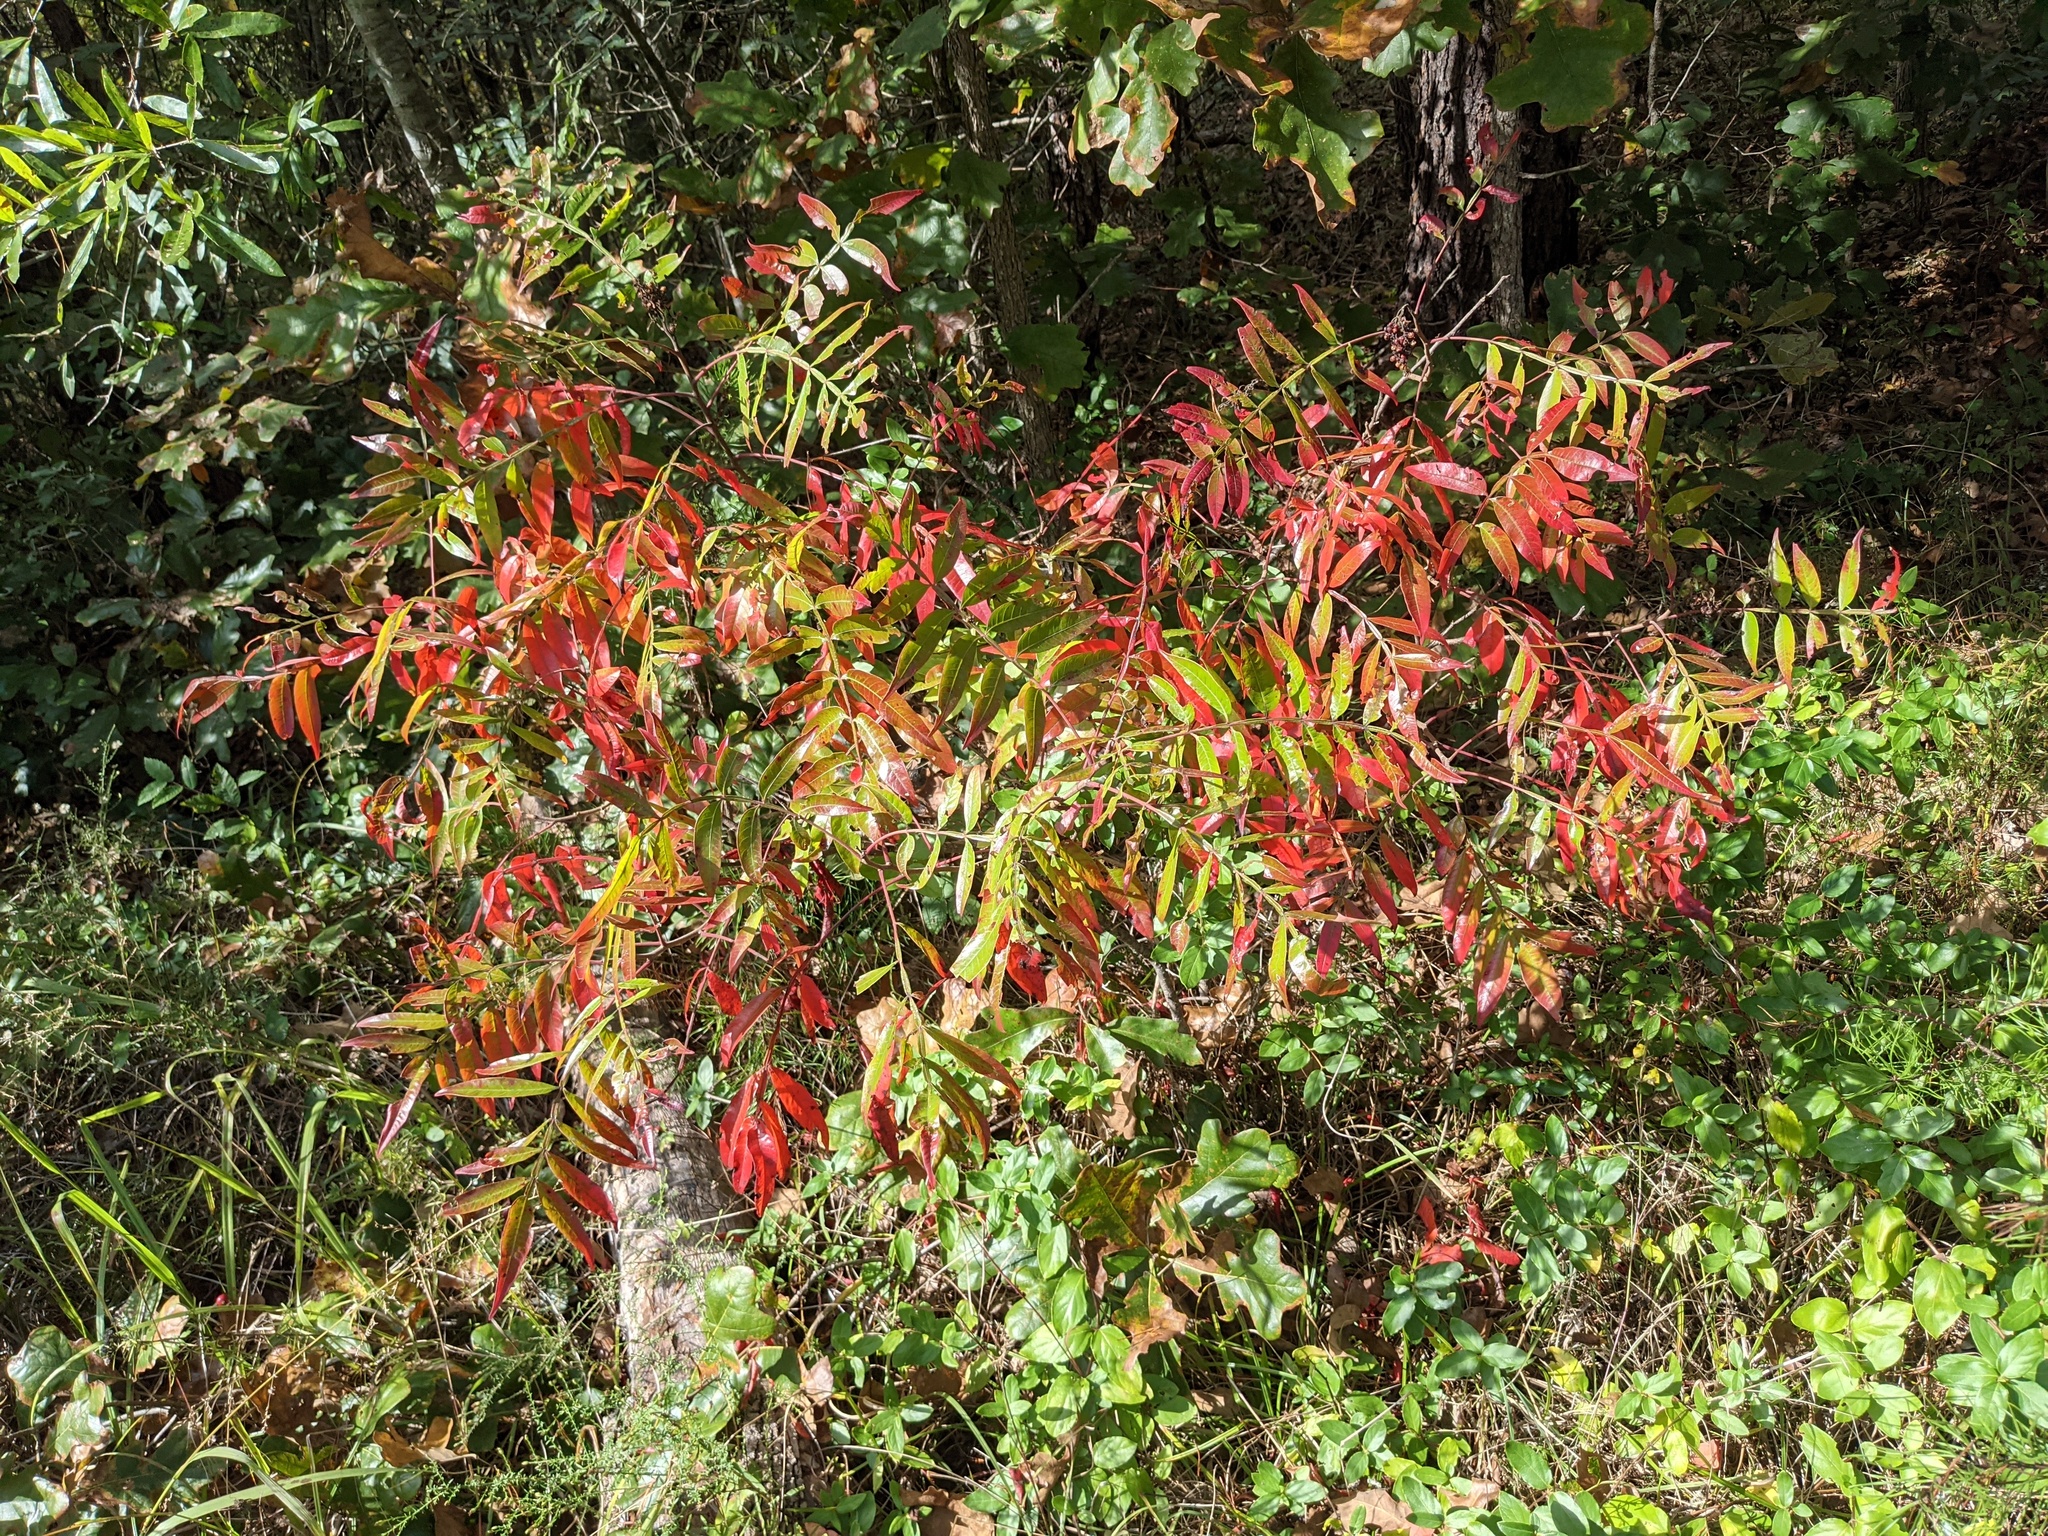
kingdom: Plantae
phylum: Tracheophyta
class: Magnoliopsida
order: Sapindales
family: Anacardiaceae
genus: Rhus
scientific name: Rhus copallina
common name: Shining sumac
